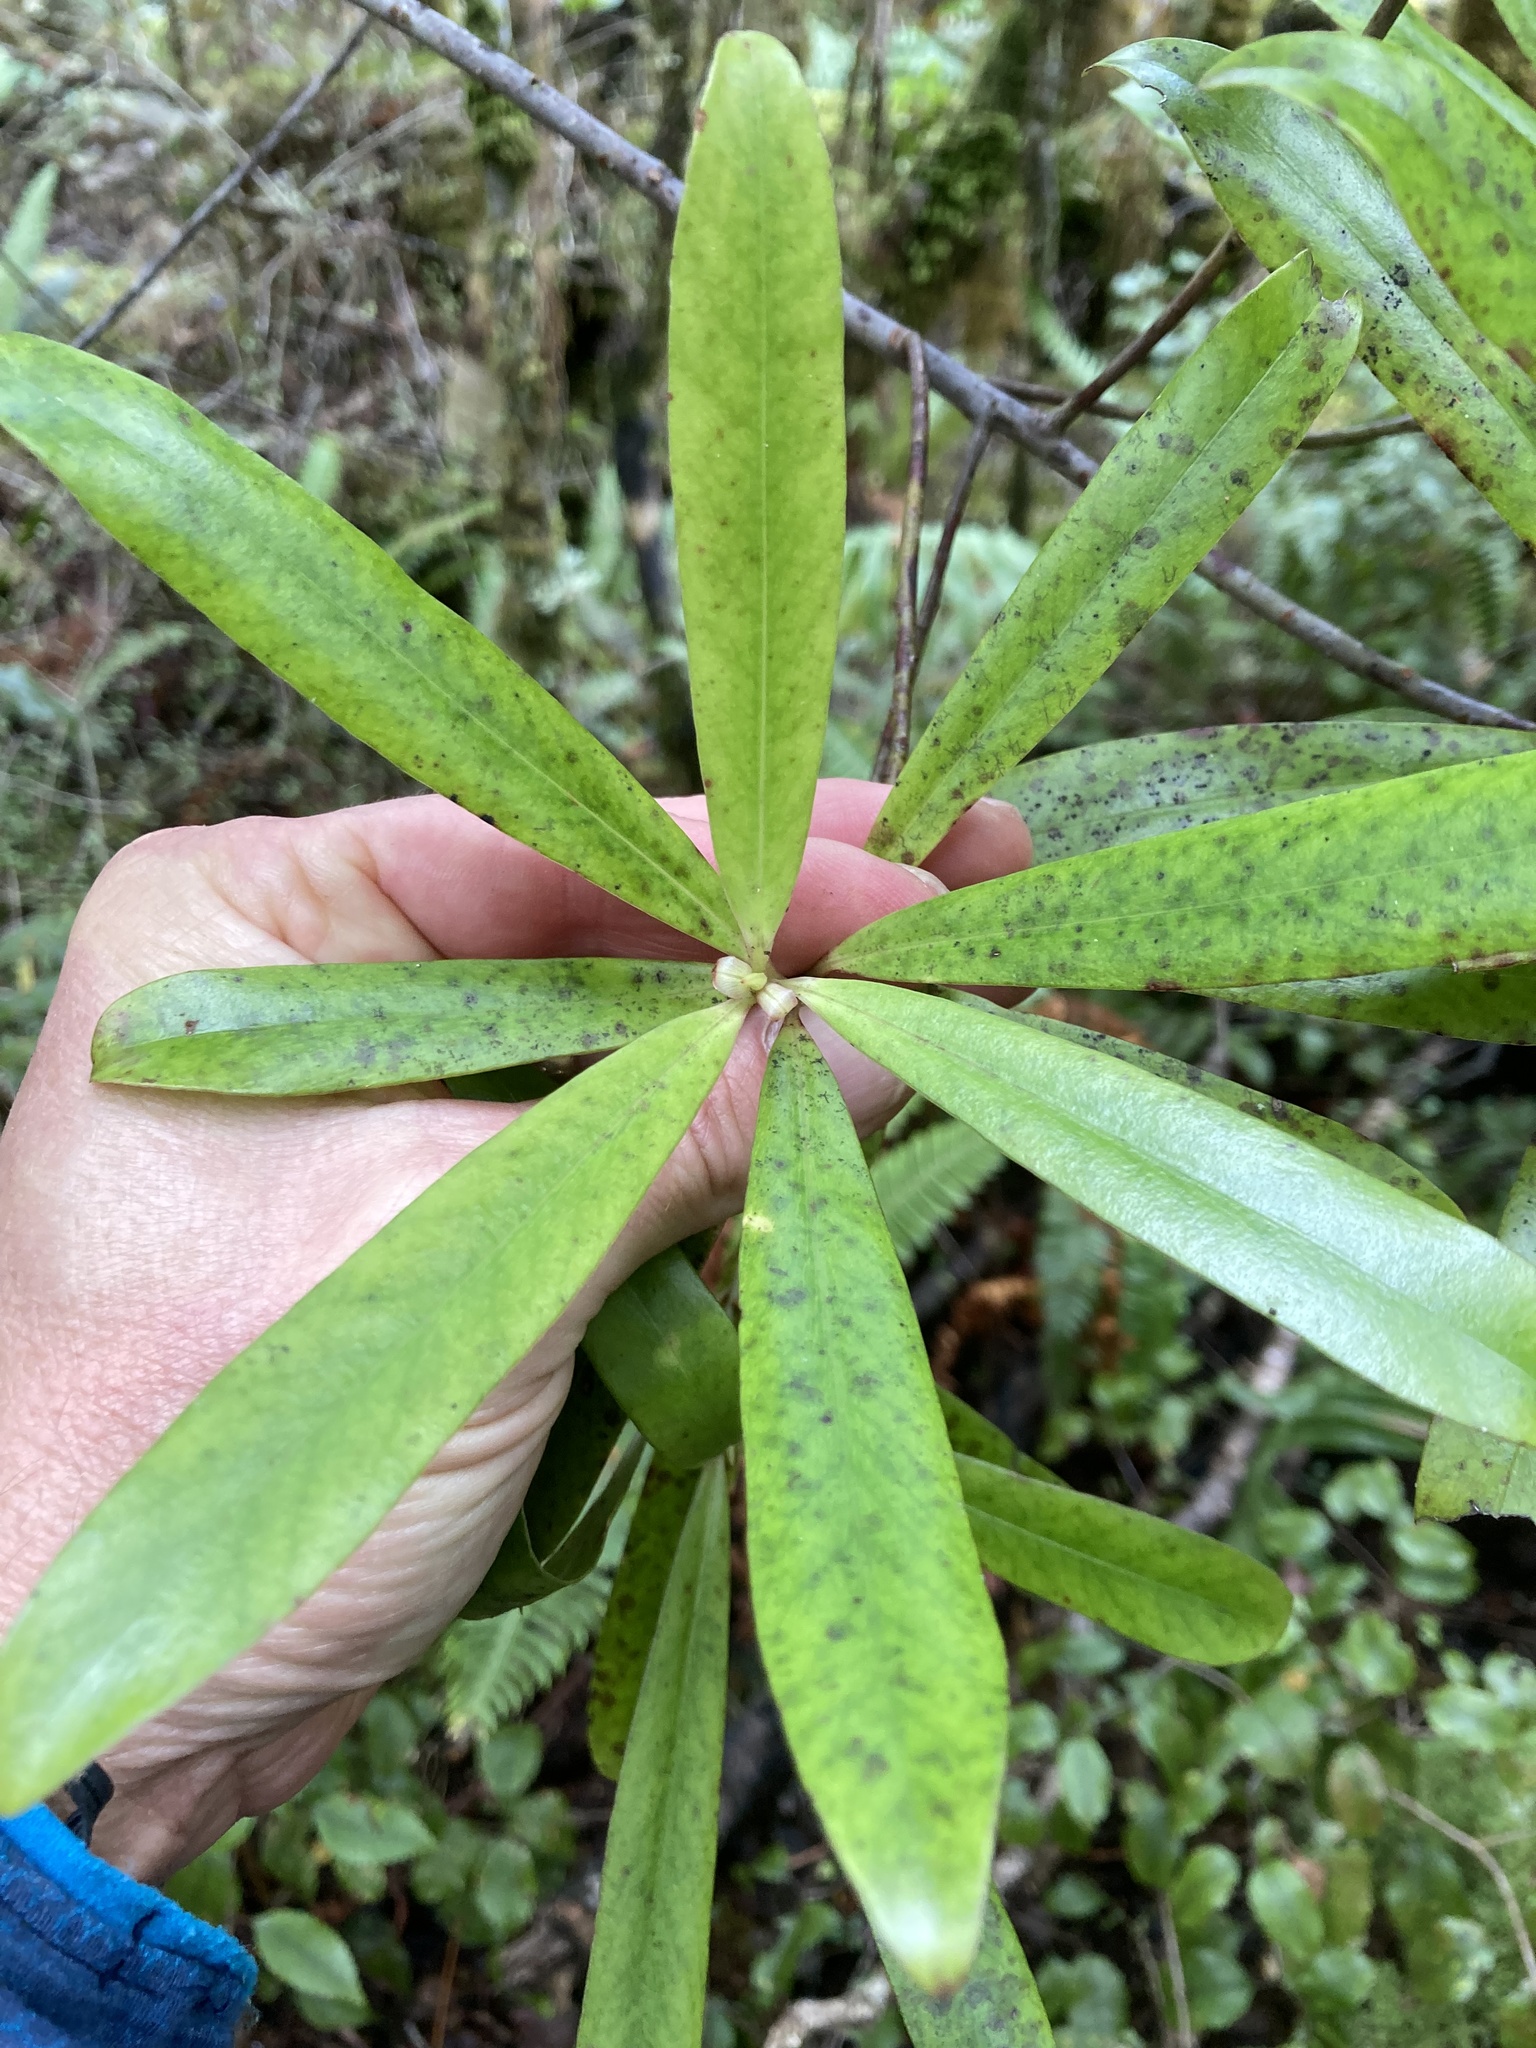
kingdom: Plantae
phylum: Tracheophyta
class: Magnoliopsida
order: Ericales
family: Primulaceae
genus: Myrsine
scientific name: Myrsine salicina
